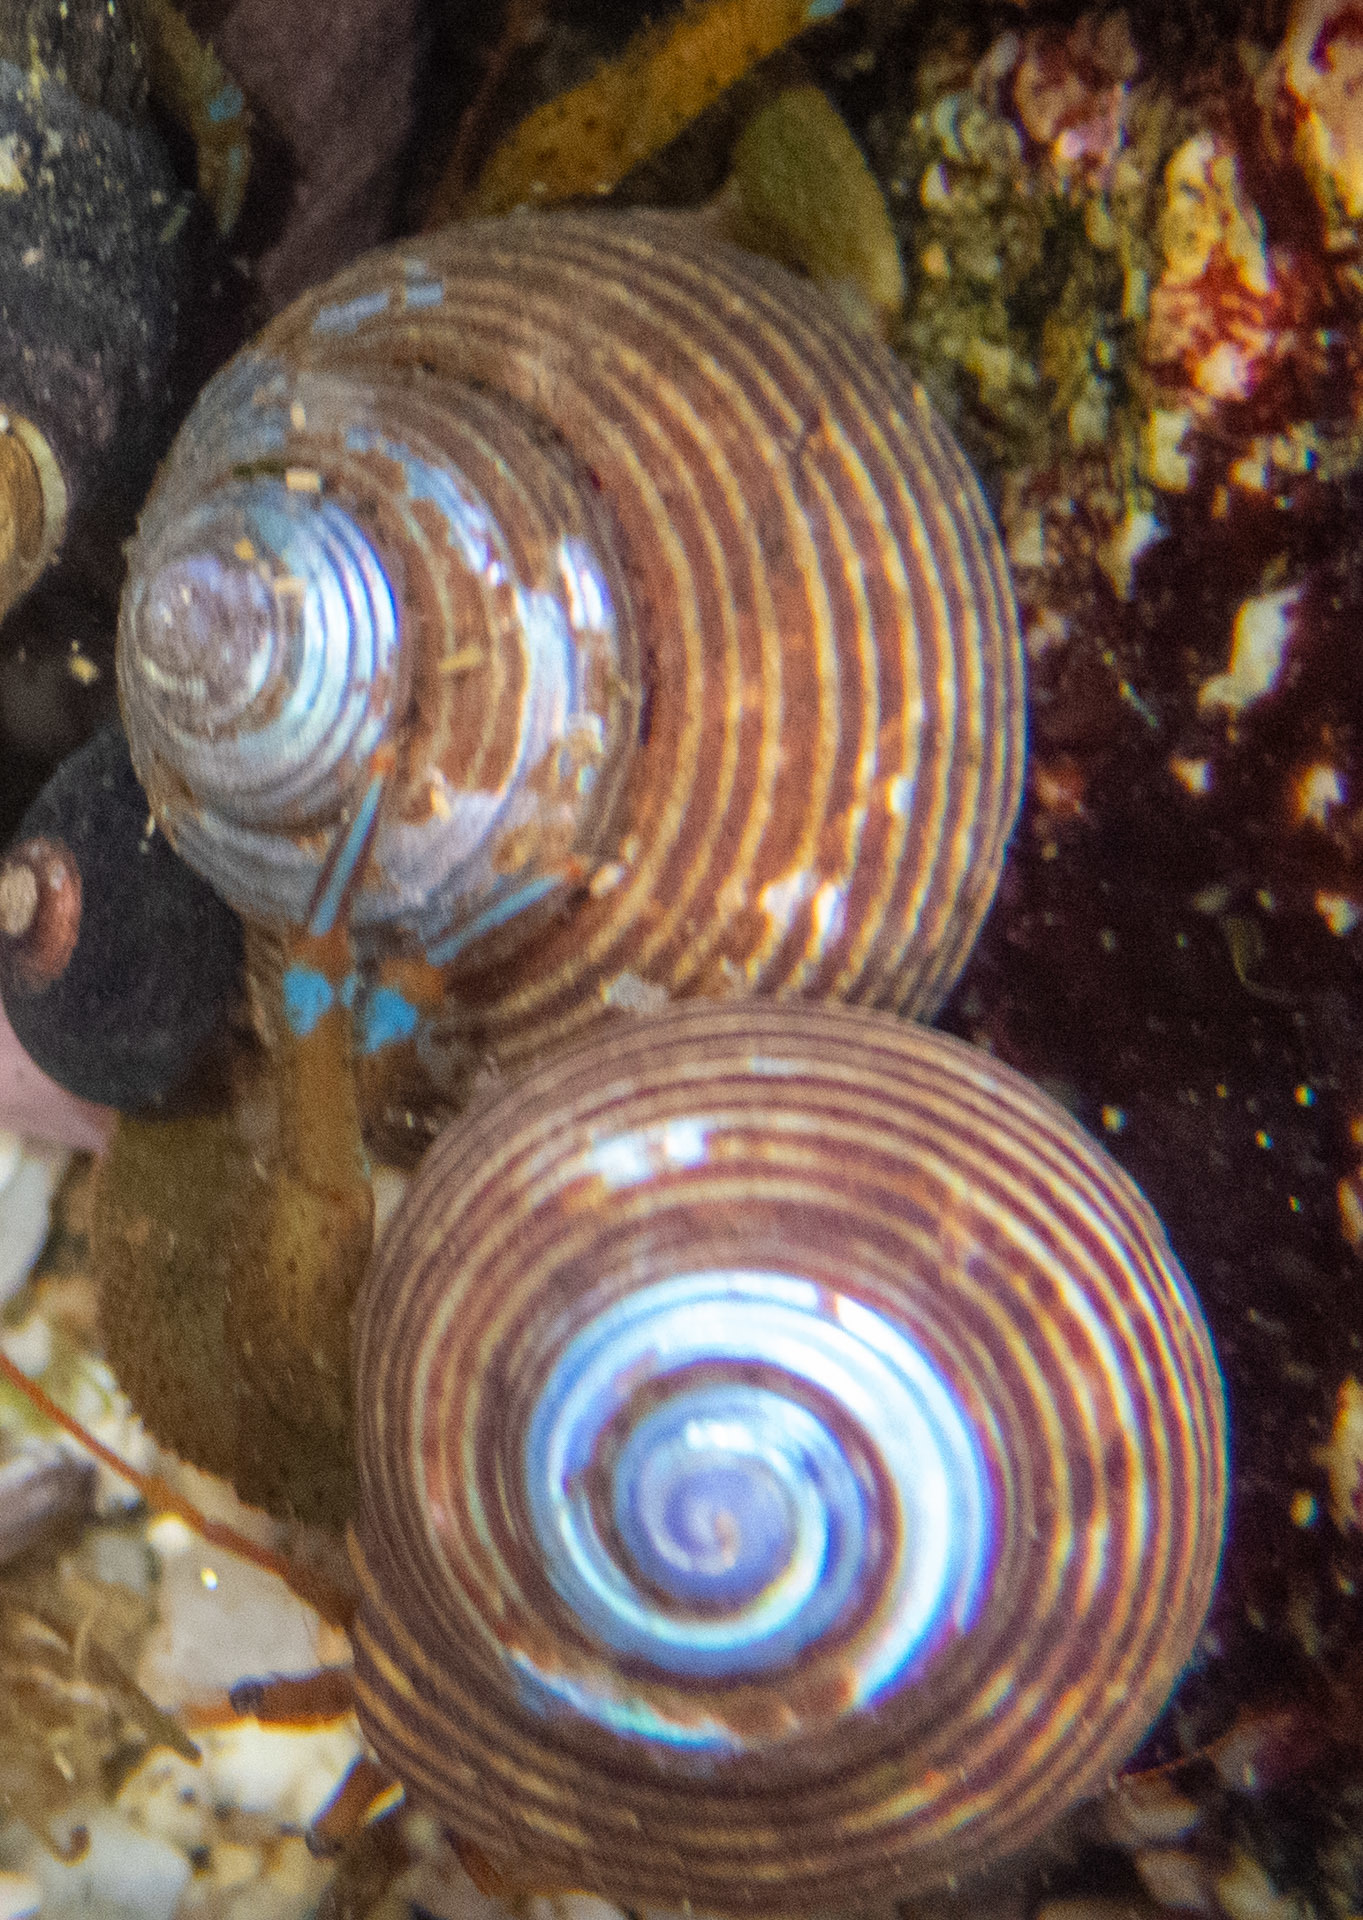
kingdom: Animalia
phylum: Mollusca
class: Gastropoda
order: Trochida
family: Calliostomatidae
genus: Calliostoma
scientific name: Calliostoma ligatum
